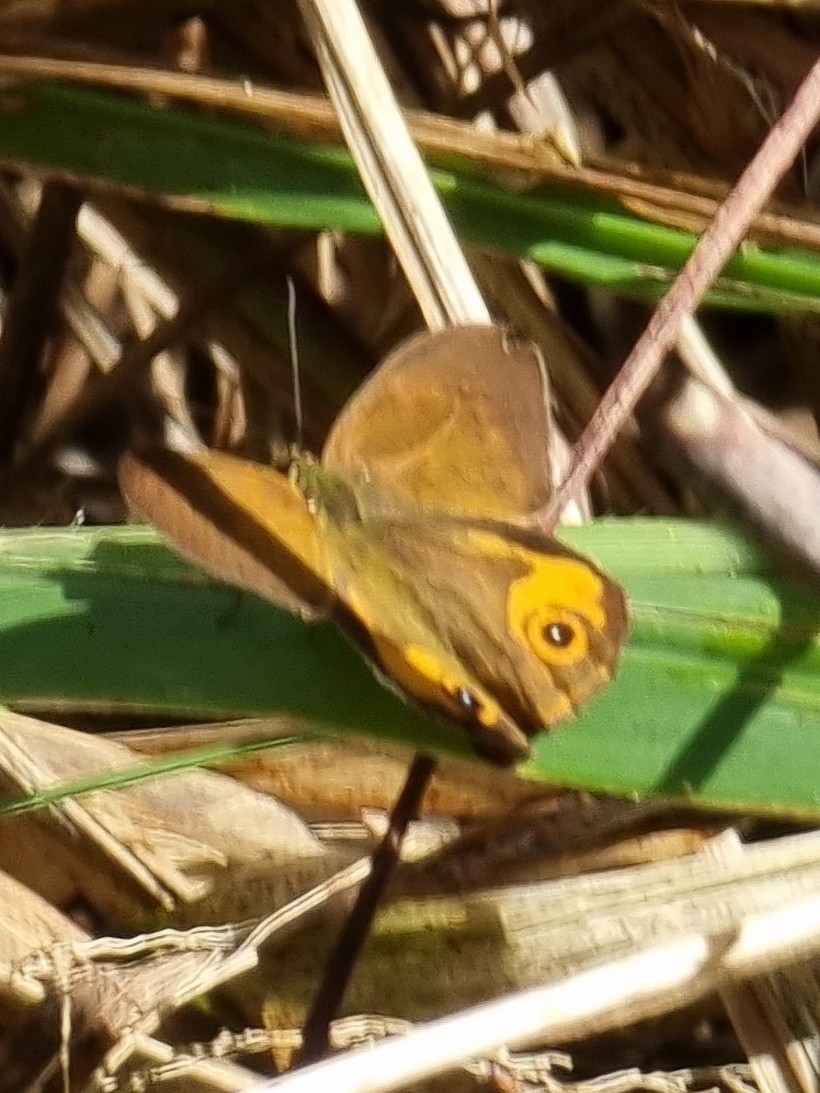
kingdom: Animalia
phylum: Arthropoda
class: Insecta
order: Lepidoptera
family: Nymphalidae
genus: Hypocysta
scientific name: Hypocysta metirius
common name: Brown ringlet
